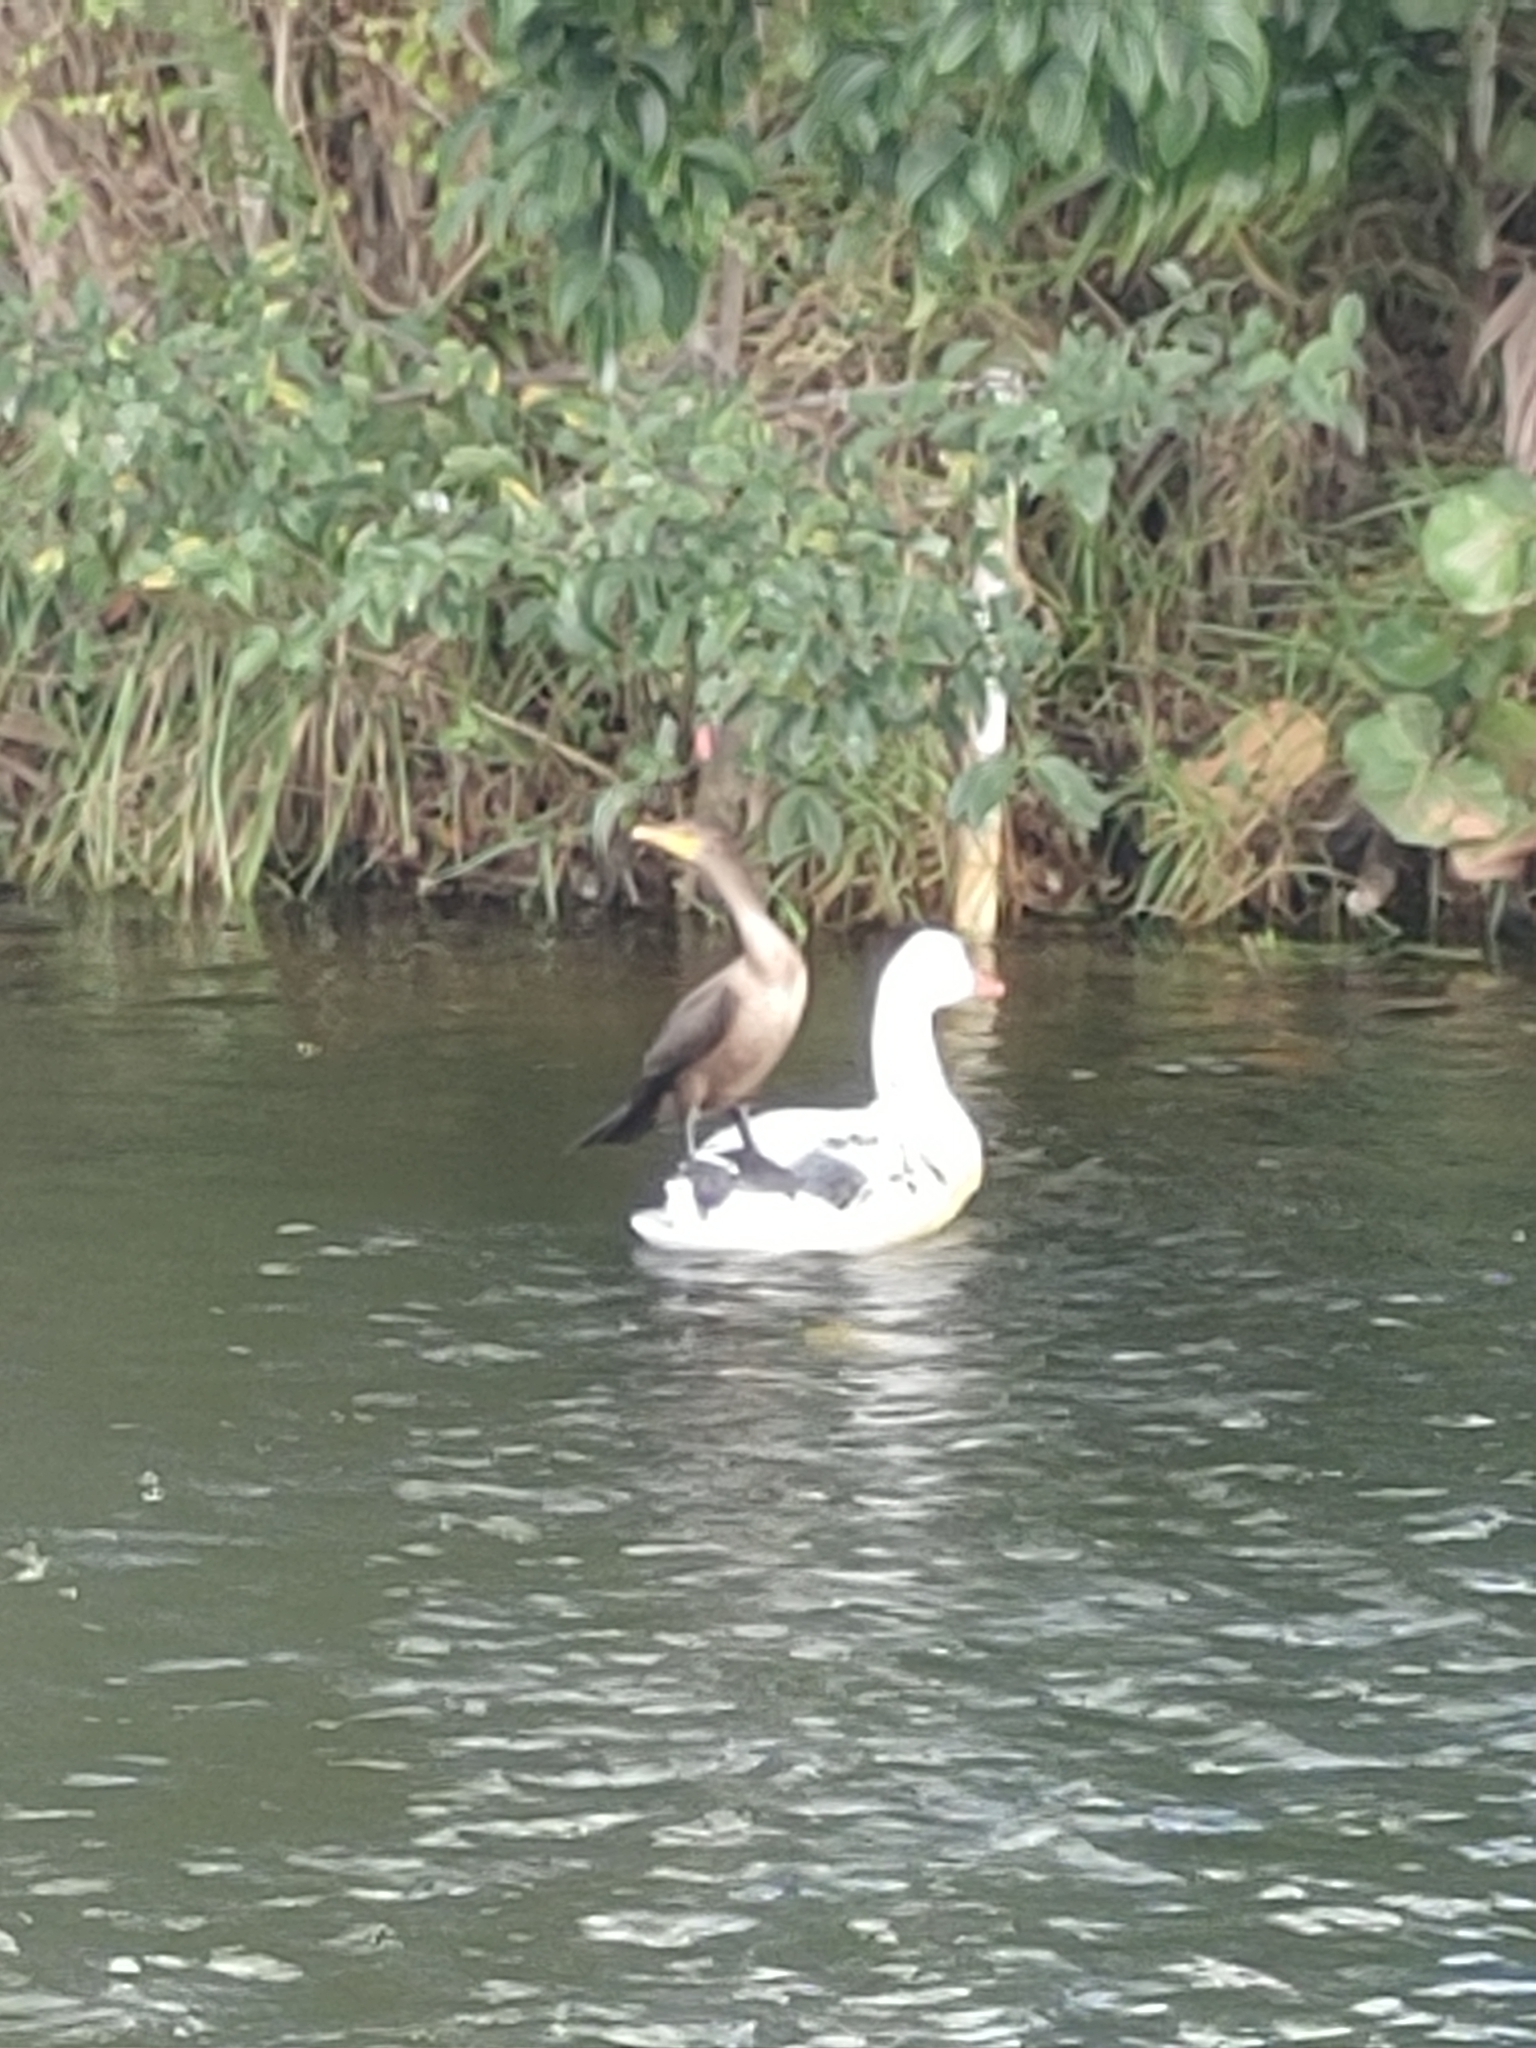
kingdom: Animalia
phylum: Chordata
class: Aves
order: Suliformes
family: Phalacrocoracidae
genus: Phalacrocorax
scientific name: Phalacrocorax auritus
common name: Double-crested cormorant
